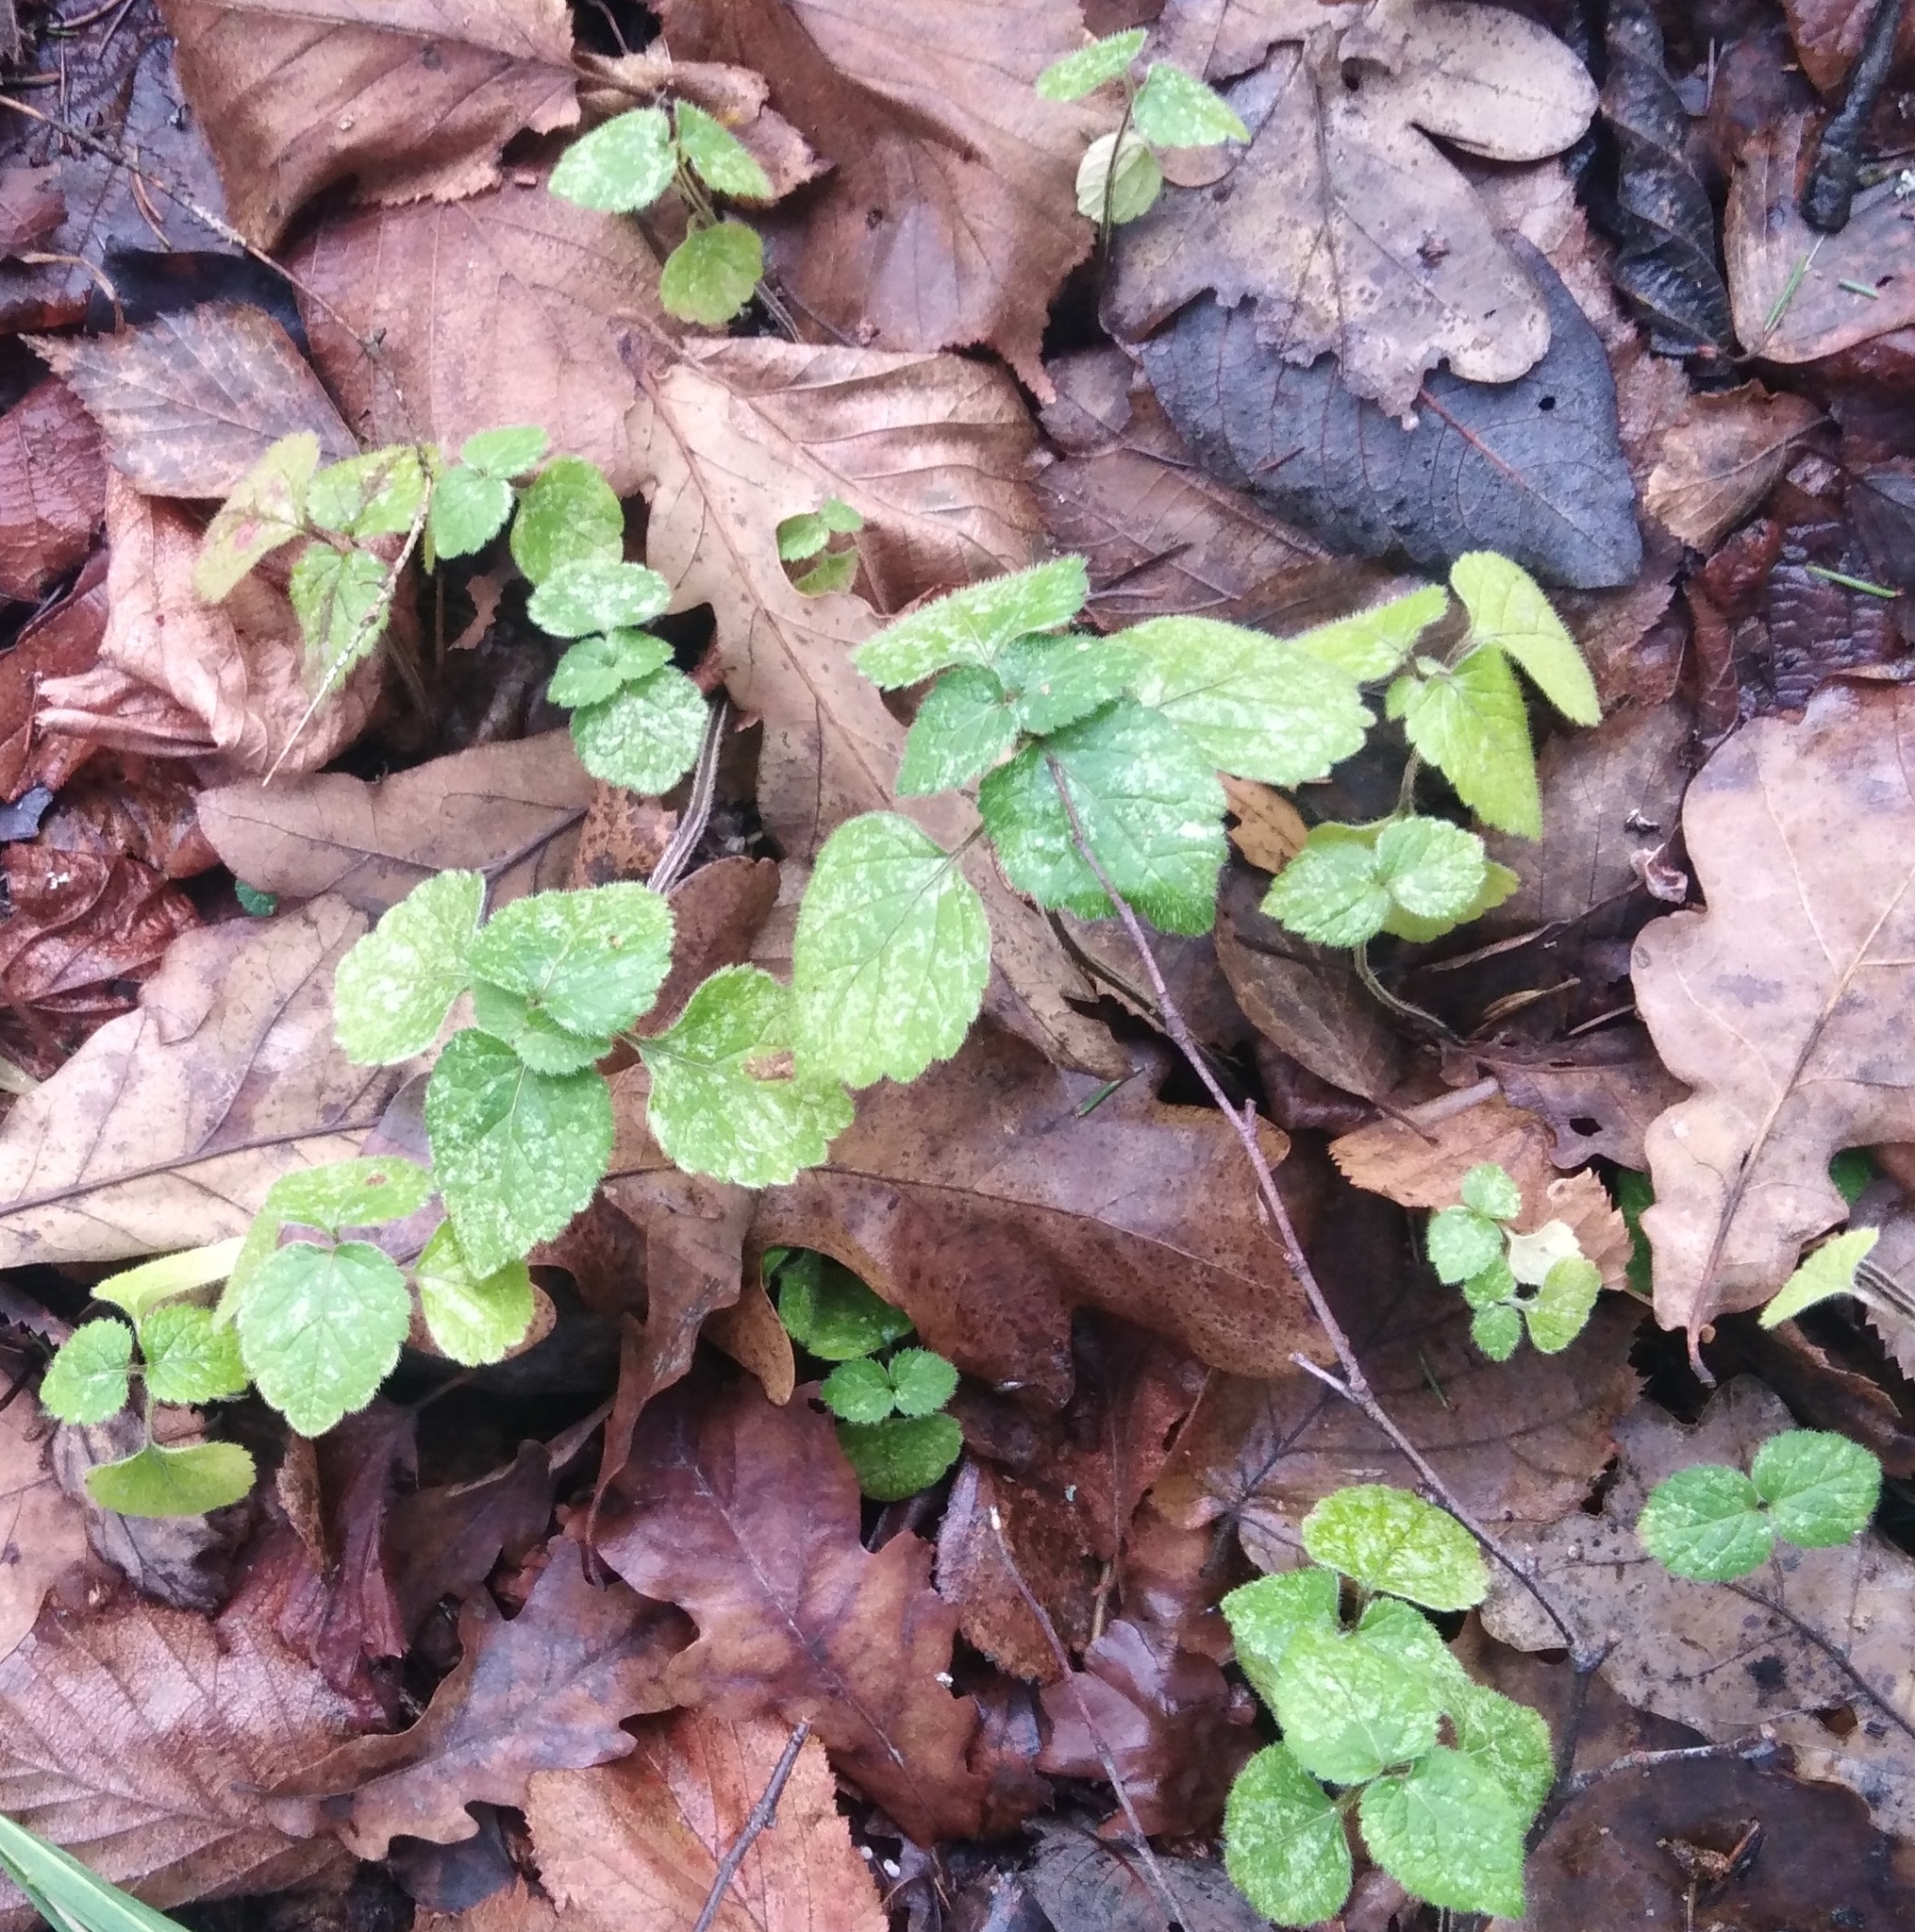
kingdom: Plantae
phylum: Tracheophyta
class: Magnoliopsida
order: Lamiales
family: Lamiaceae
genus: Lamium
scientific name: Lamium galeobdolon
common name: Yellow archangel
